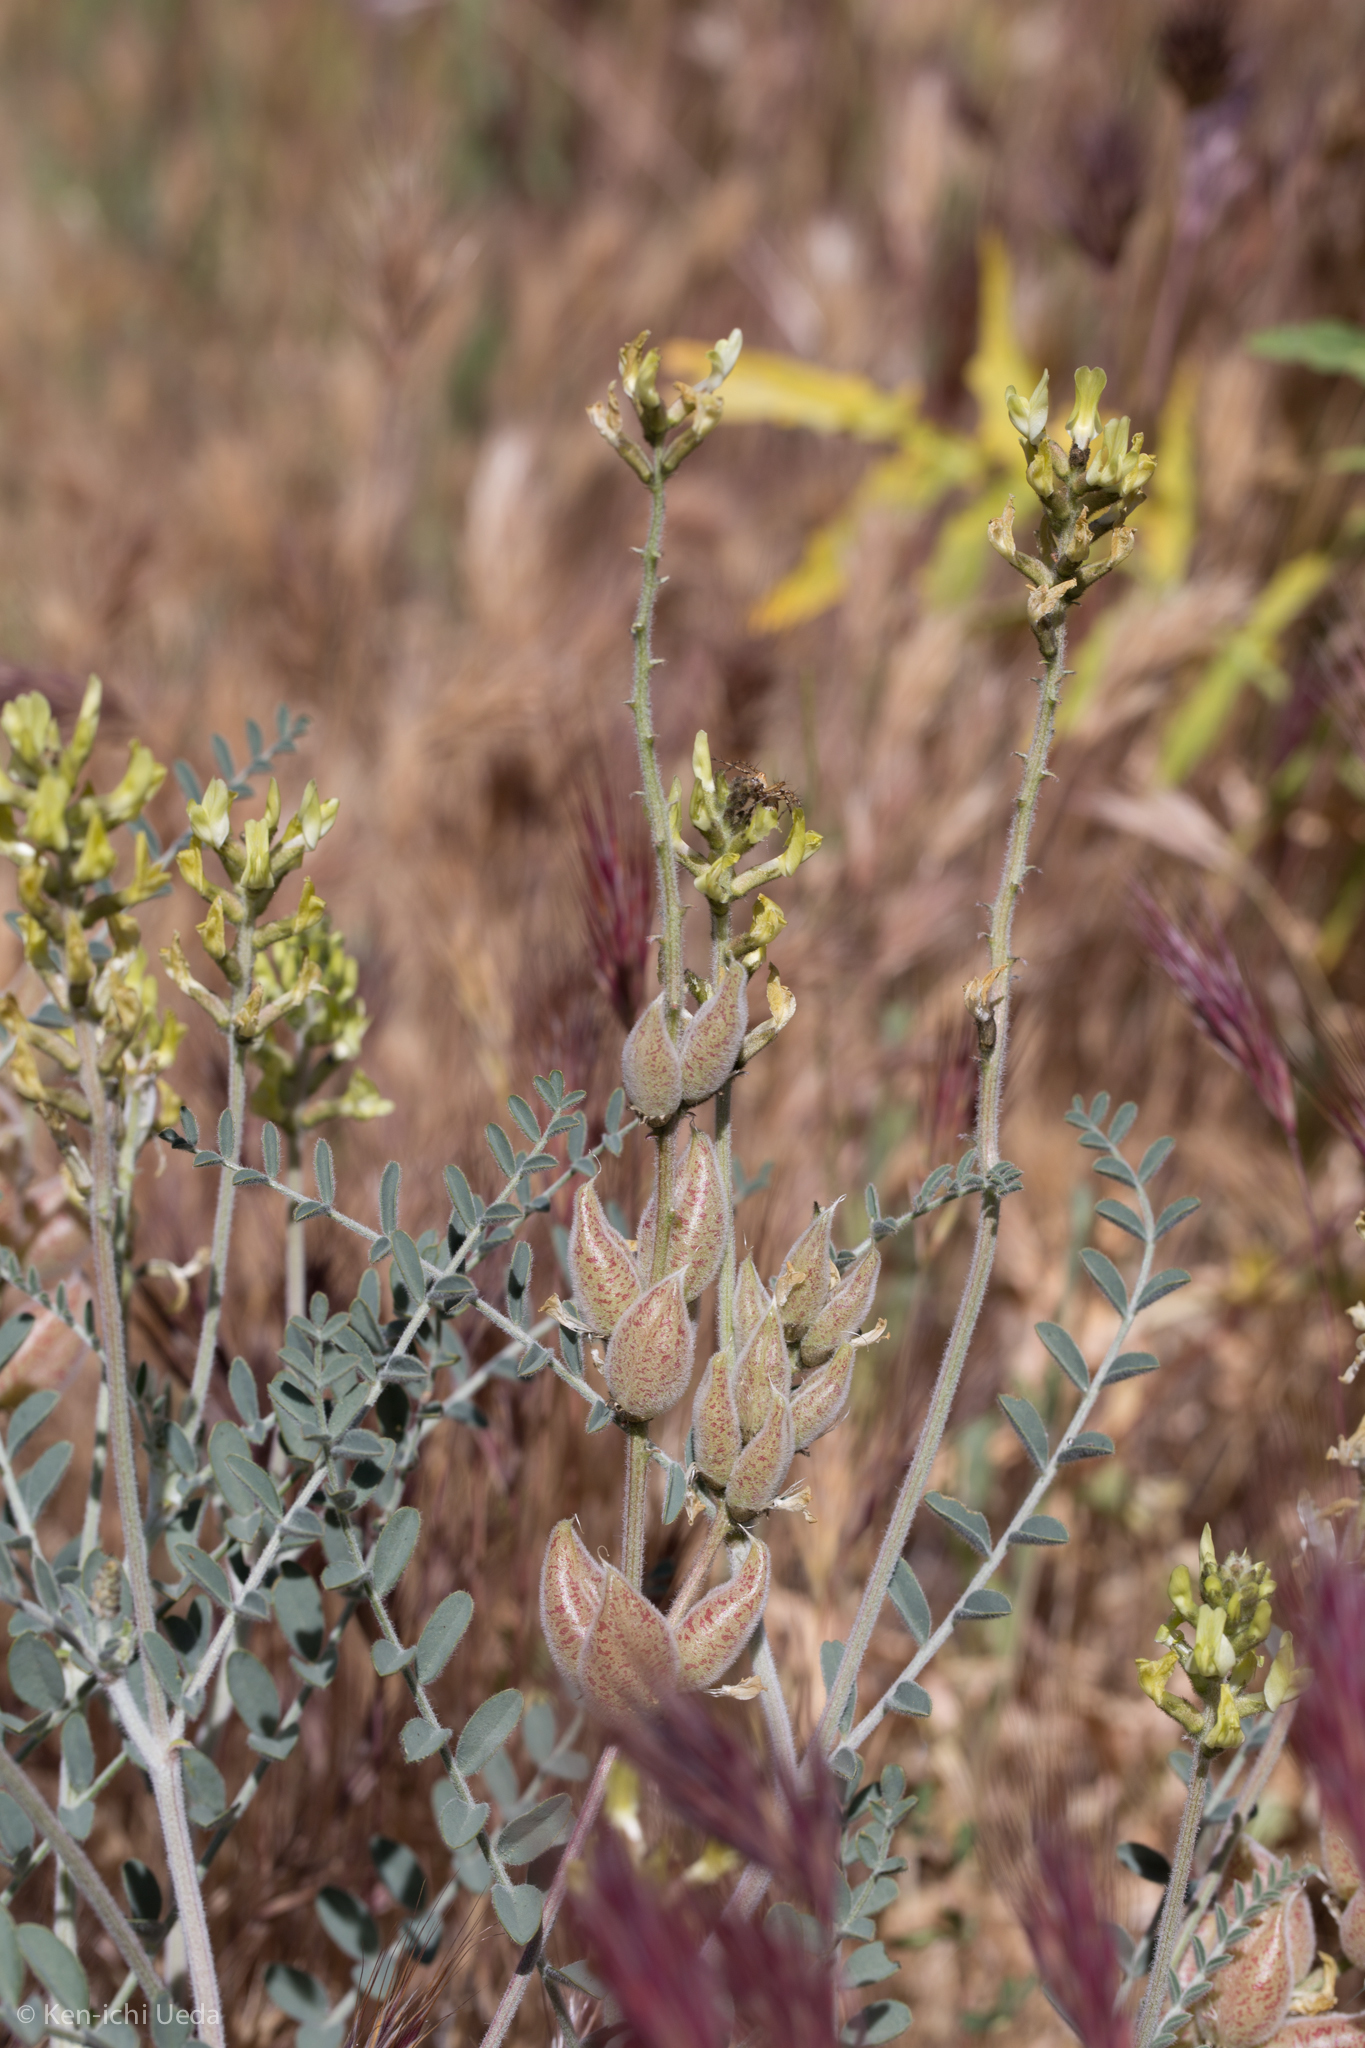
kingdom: Plantae
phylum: Tracheophyta
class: Magnoliopsida
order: Fabales
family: Fabaceae
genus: Astragalus
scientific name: Astragalus lentiginosus
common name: Freckled milkvetch
